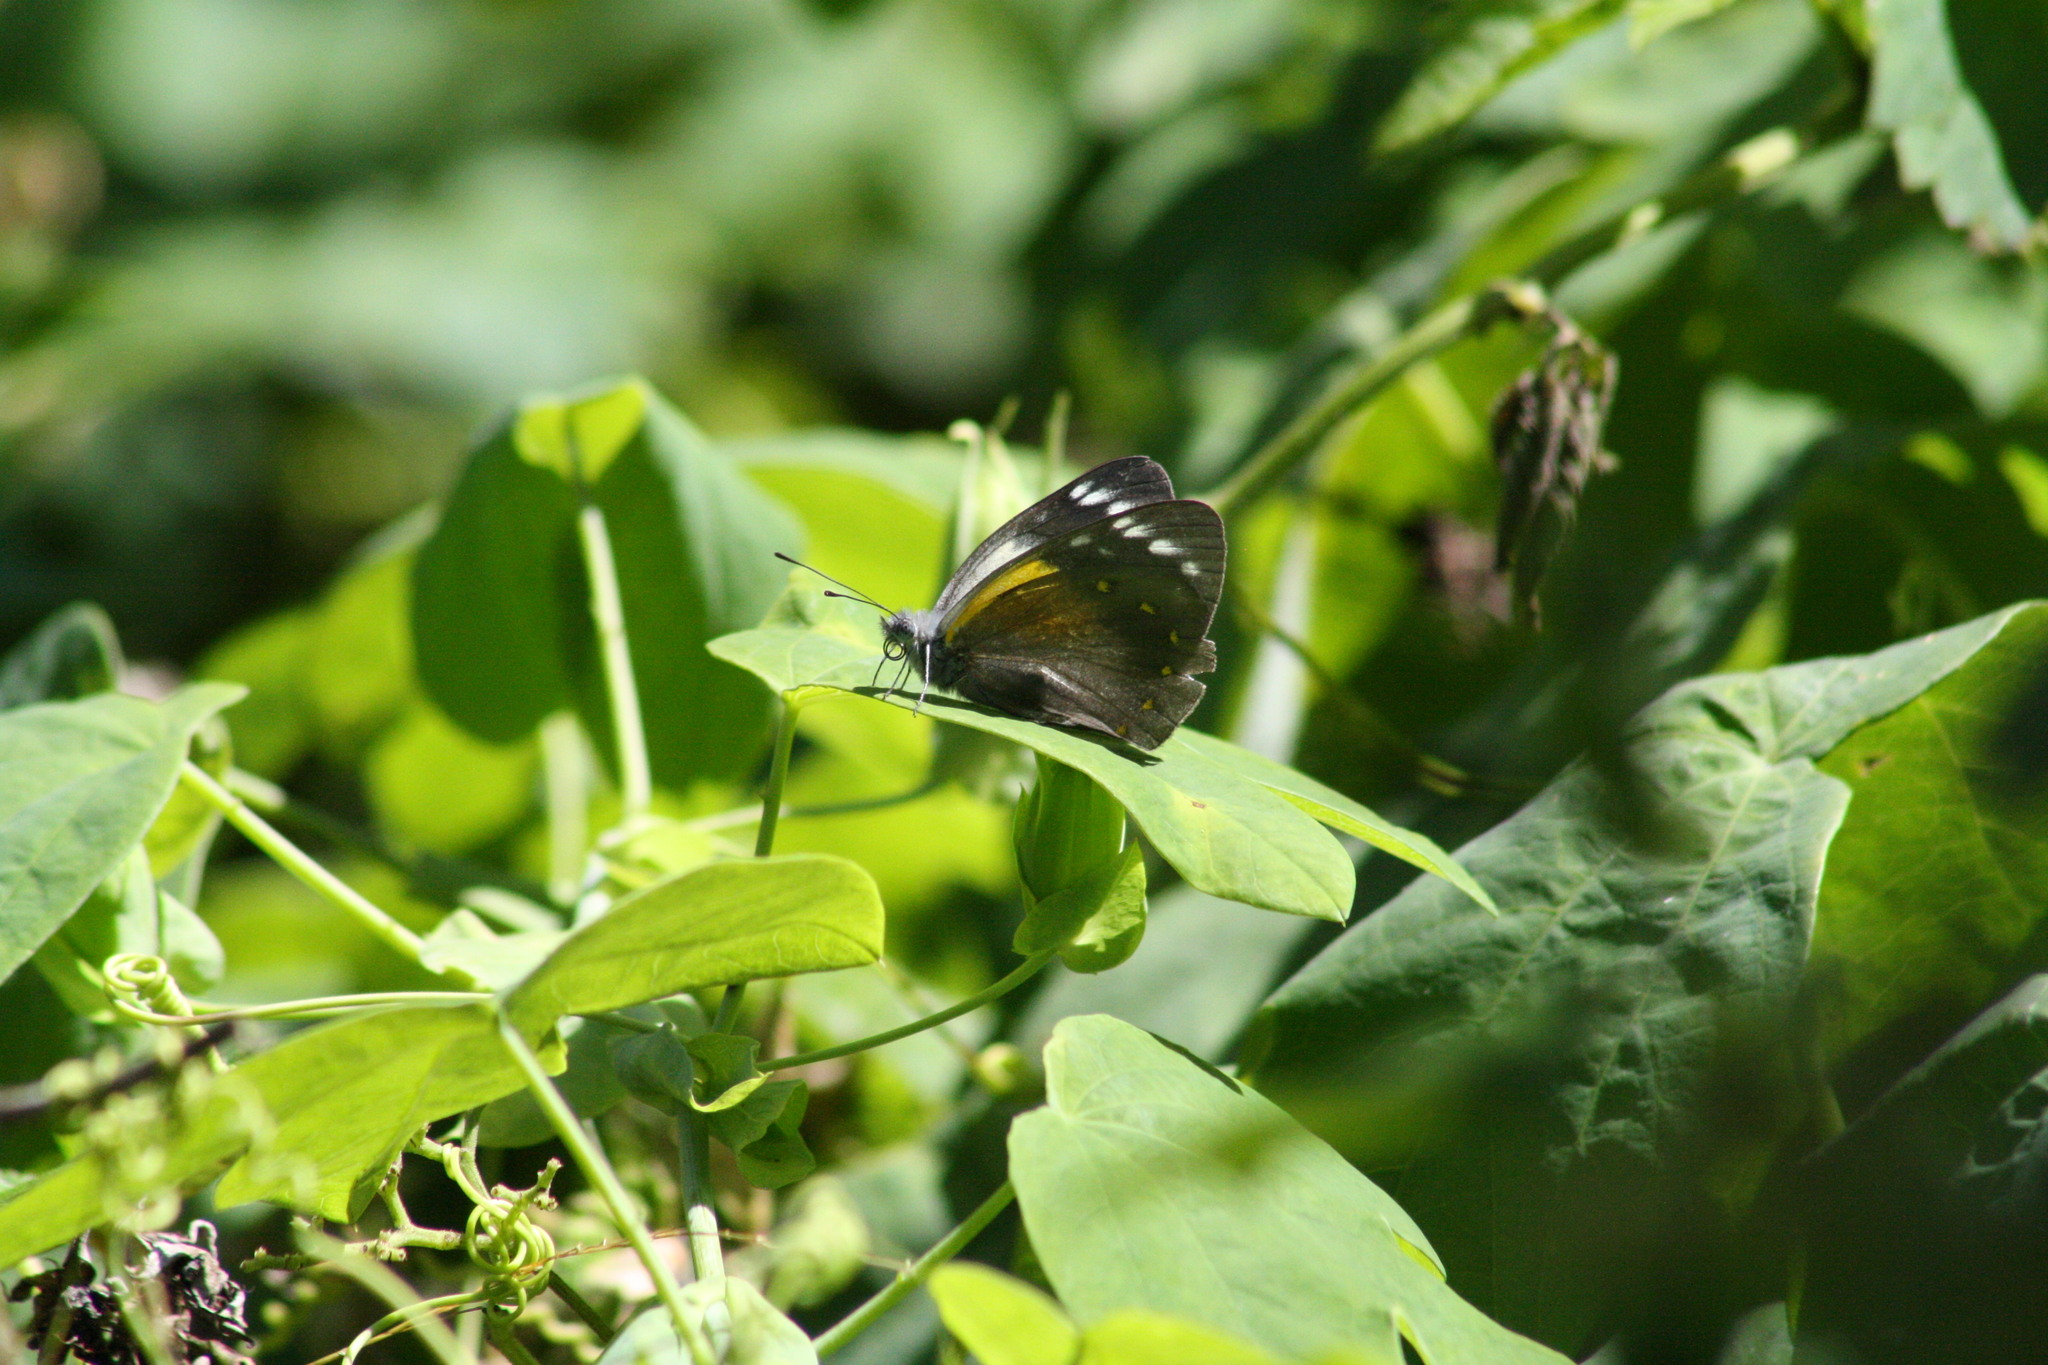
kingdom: Animalia
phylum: Arthropoda
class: Insecta
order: Lepidoptera
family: Pieridae
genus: Delias
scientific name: Delias nysa
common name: Yellow-spotted jezebel
